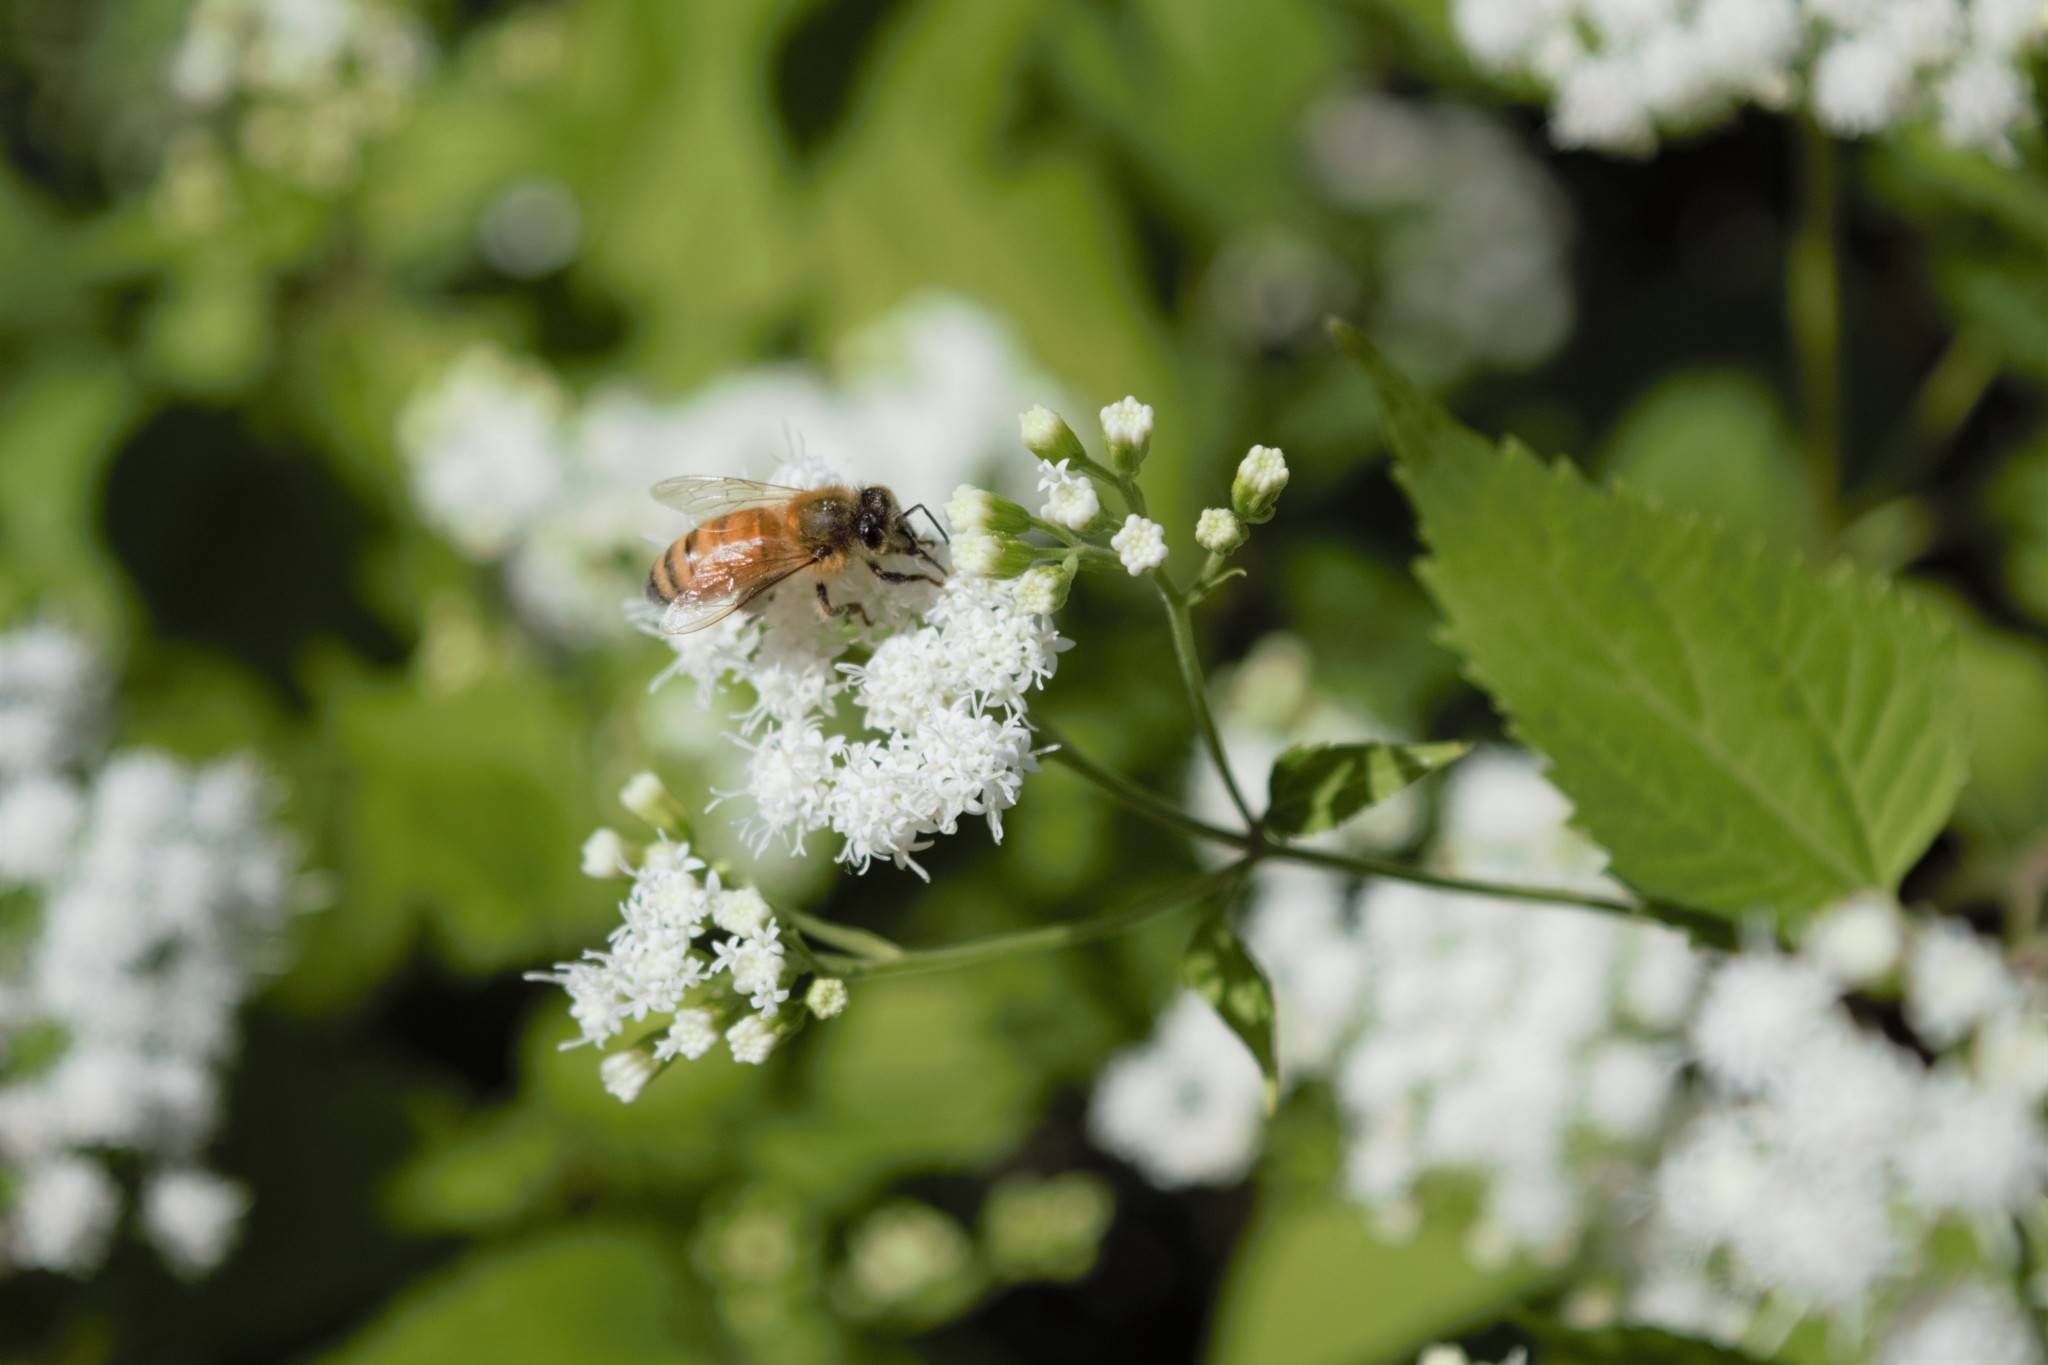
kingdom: Animalia
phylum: Arthropoda
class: Insecta
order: Hymenoptera
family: Apidae
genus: Apis
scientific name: Apis mellifera
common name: Honey bee
